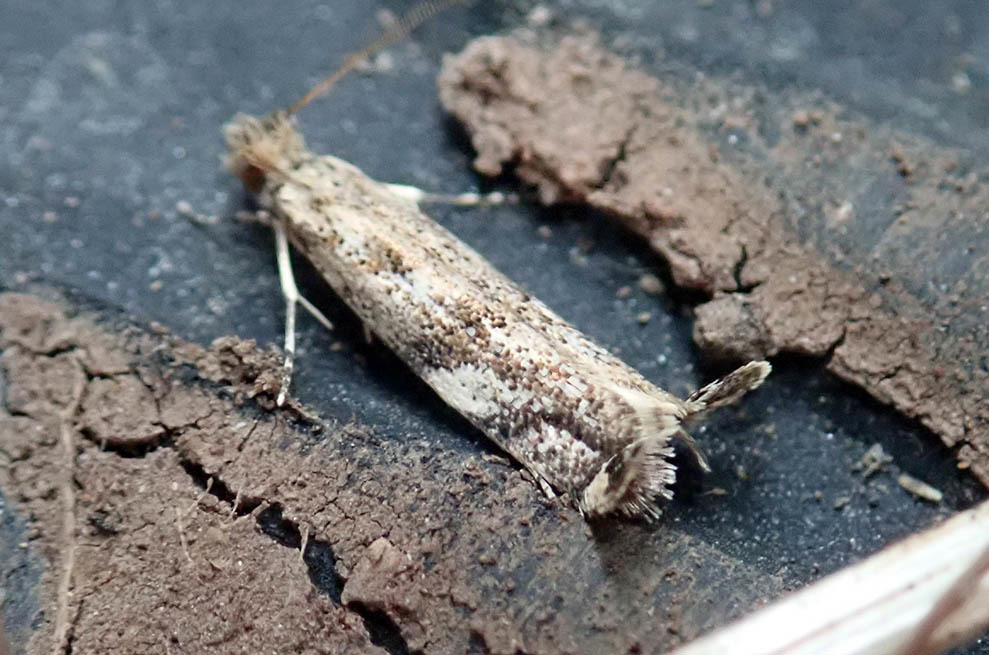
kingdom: Animalia
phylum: Arthropoda
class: Insecta
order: Lepidoptera
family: Tineidae
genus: Erechthias
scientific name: Erechthias acrodina
